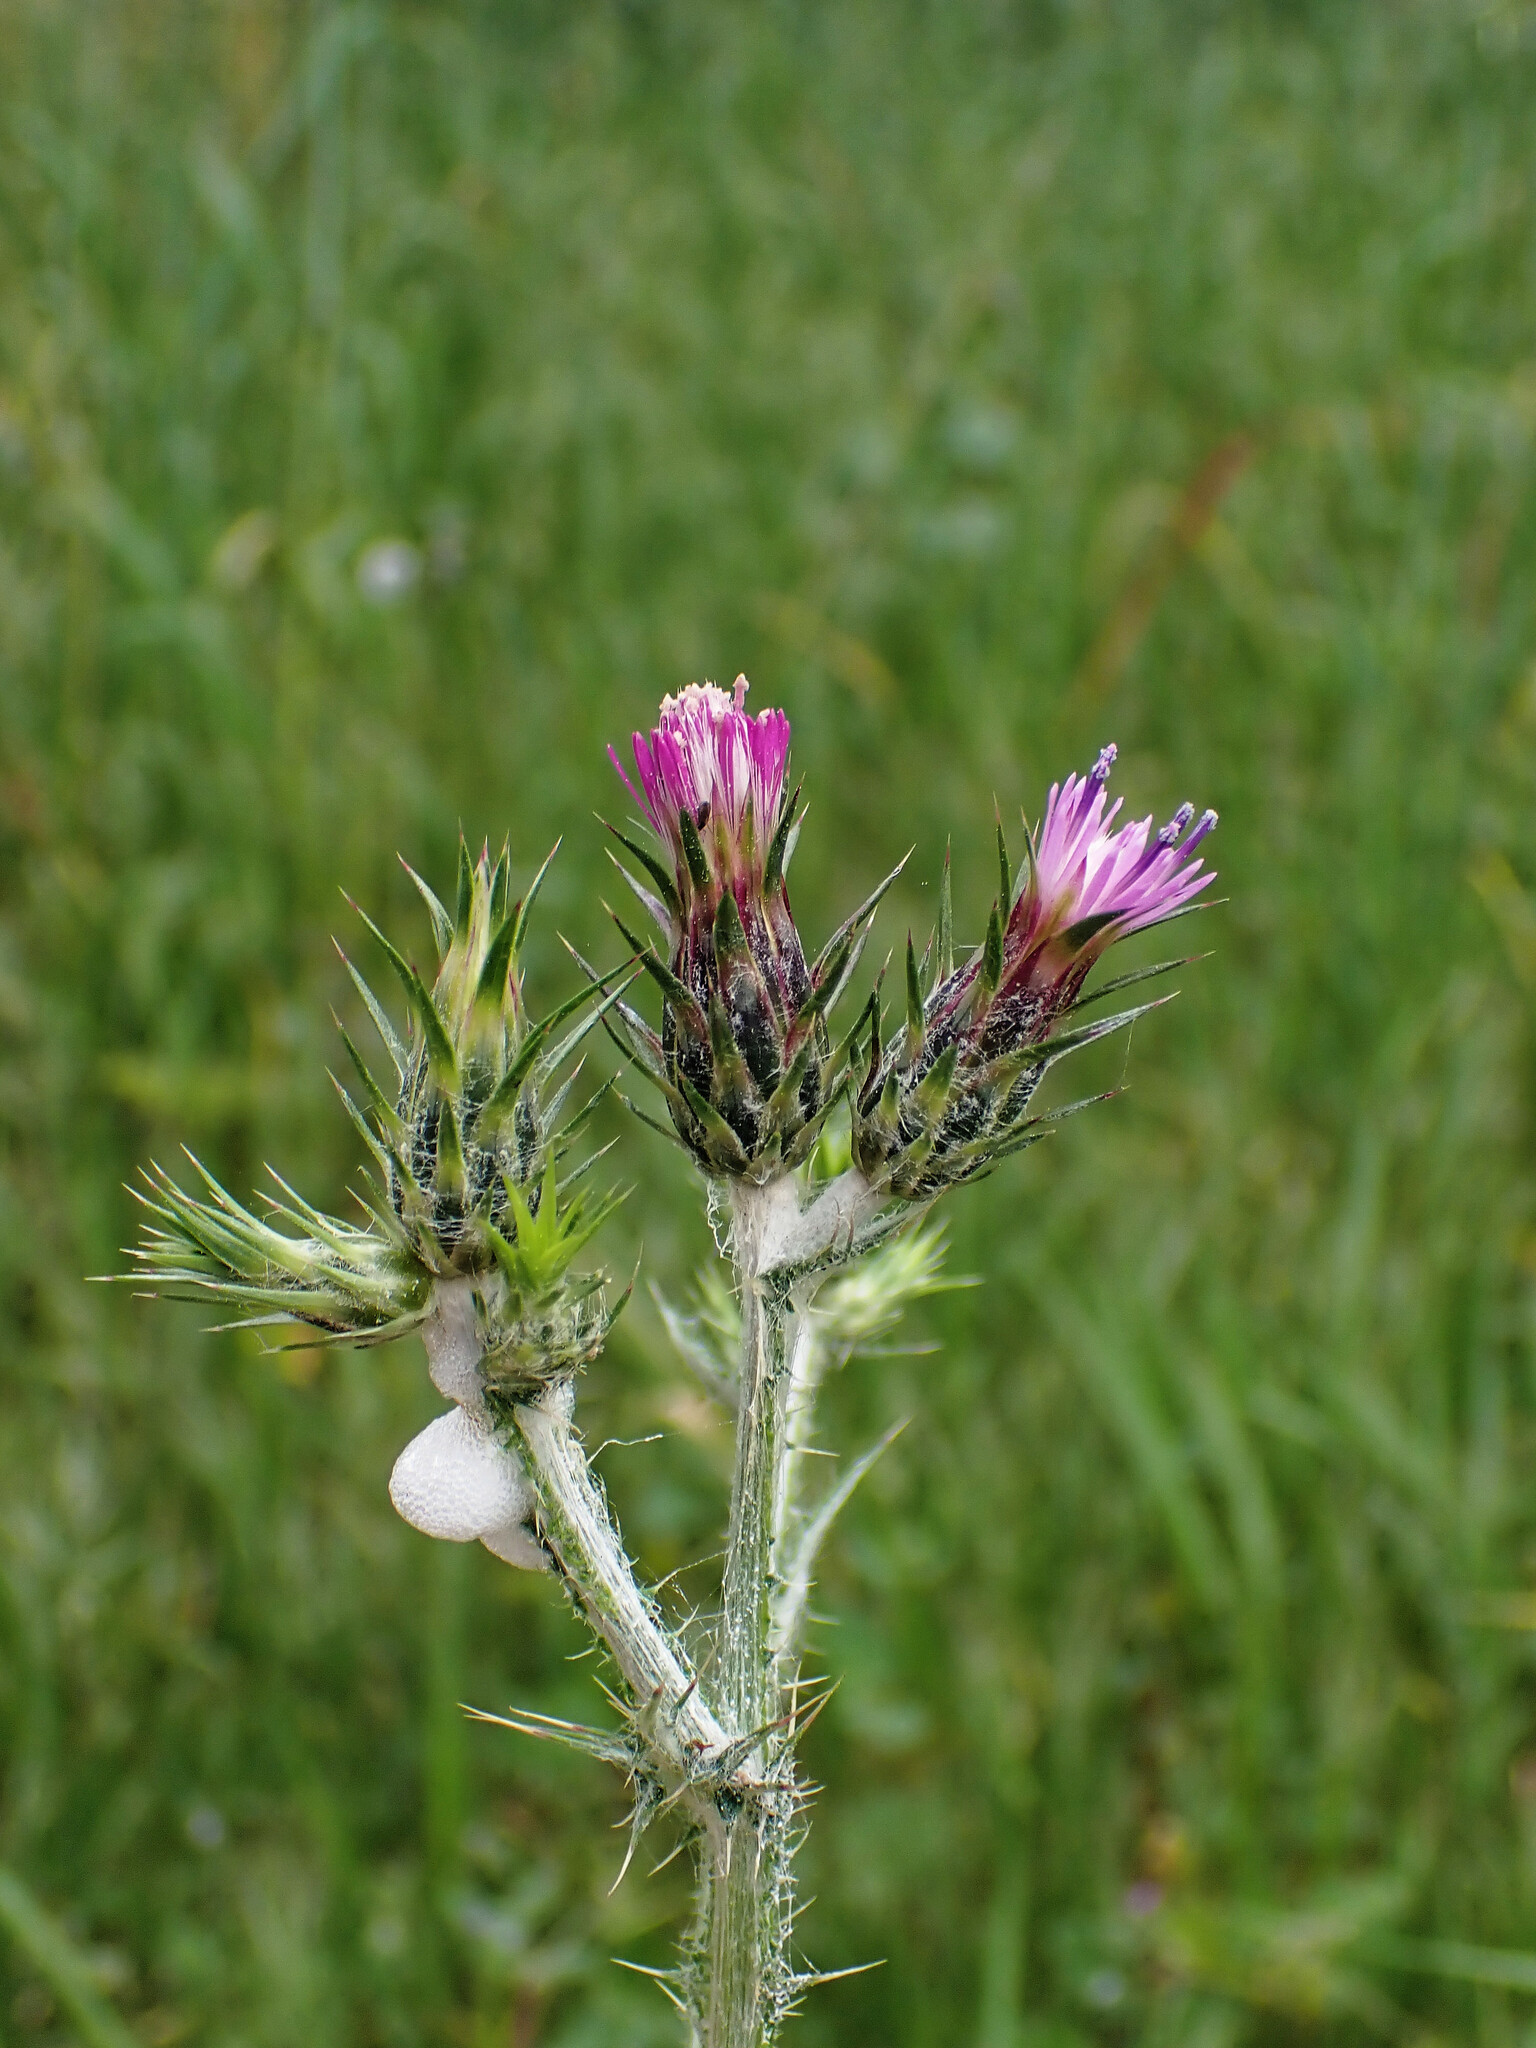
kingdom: Plantae
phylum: Tracheophyta
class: Magnoliopsida
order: Asterales
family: Asteraceae
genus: Carduus
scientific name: Carduus pycnocephalus
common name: Plymouth thistle
